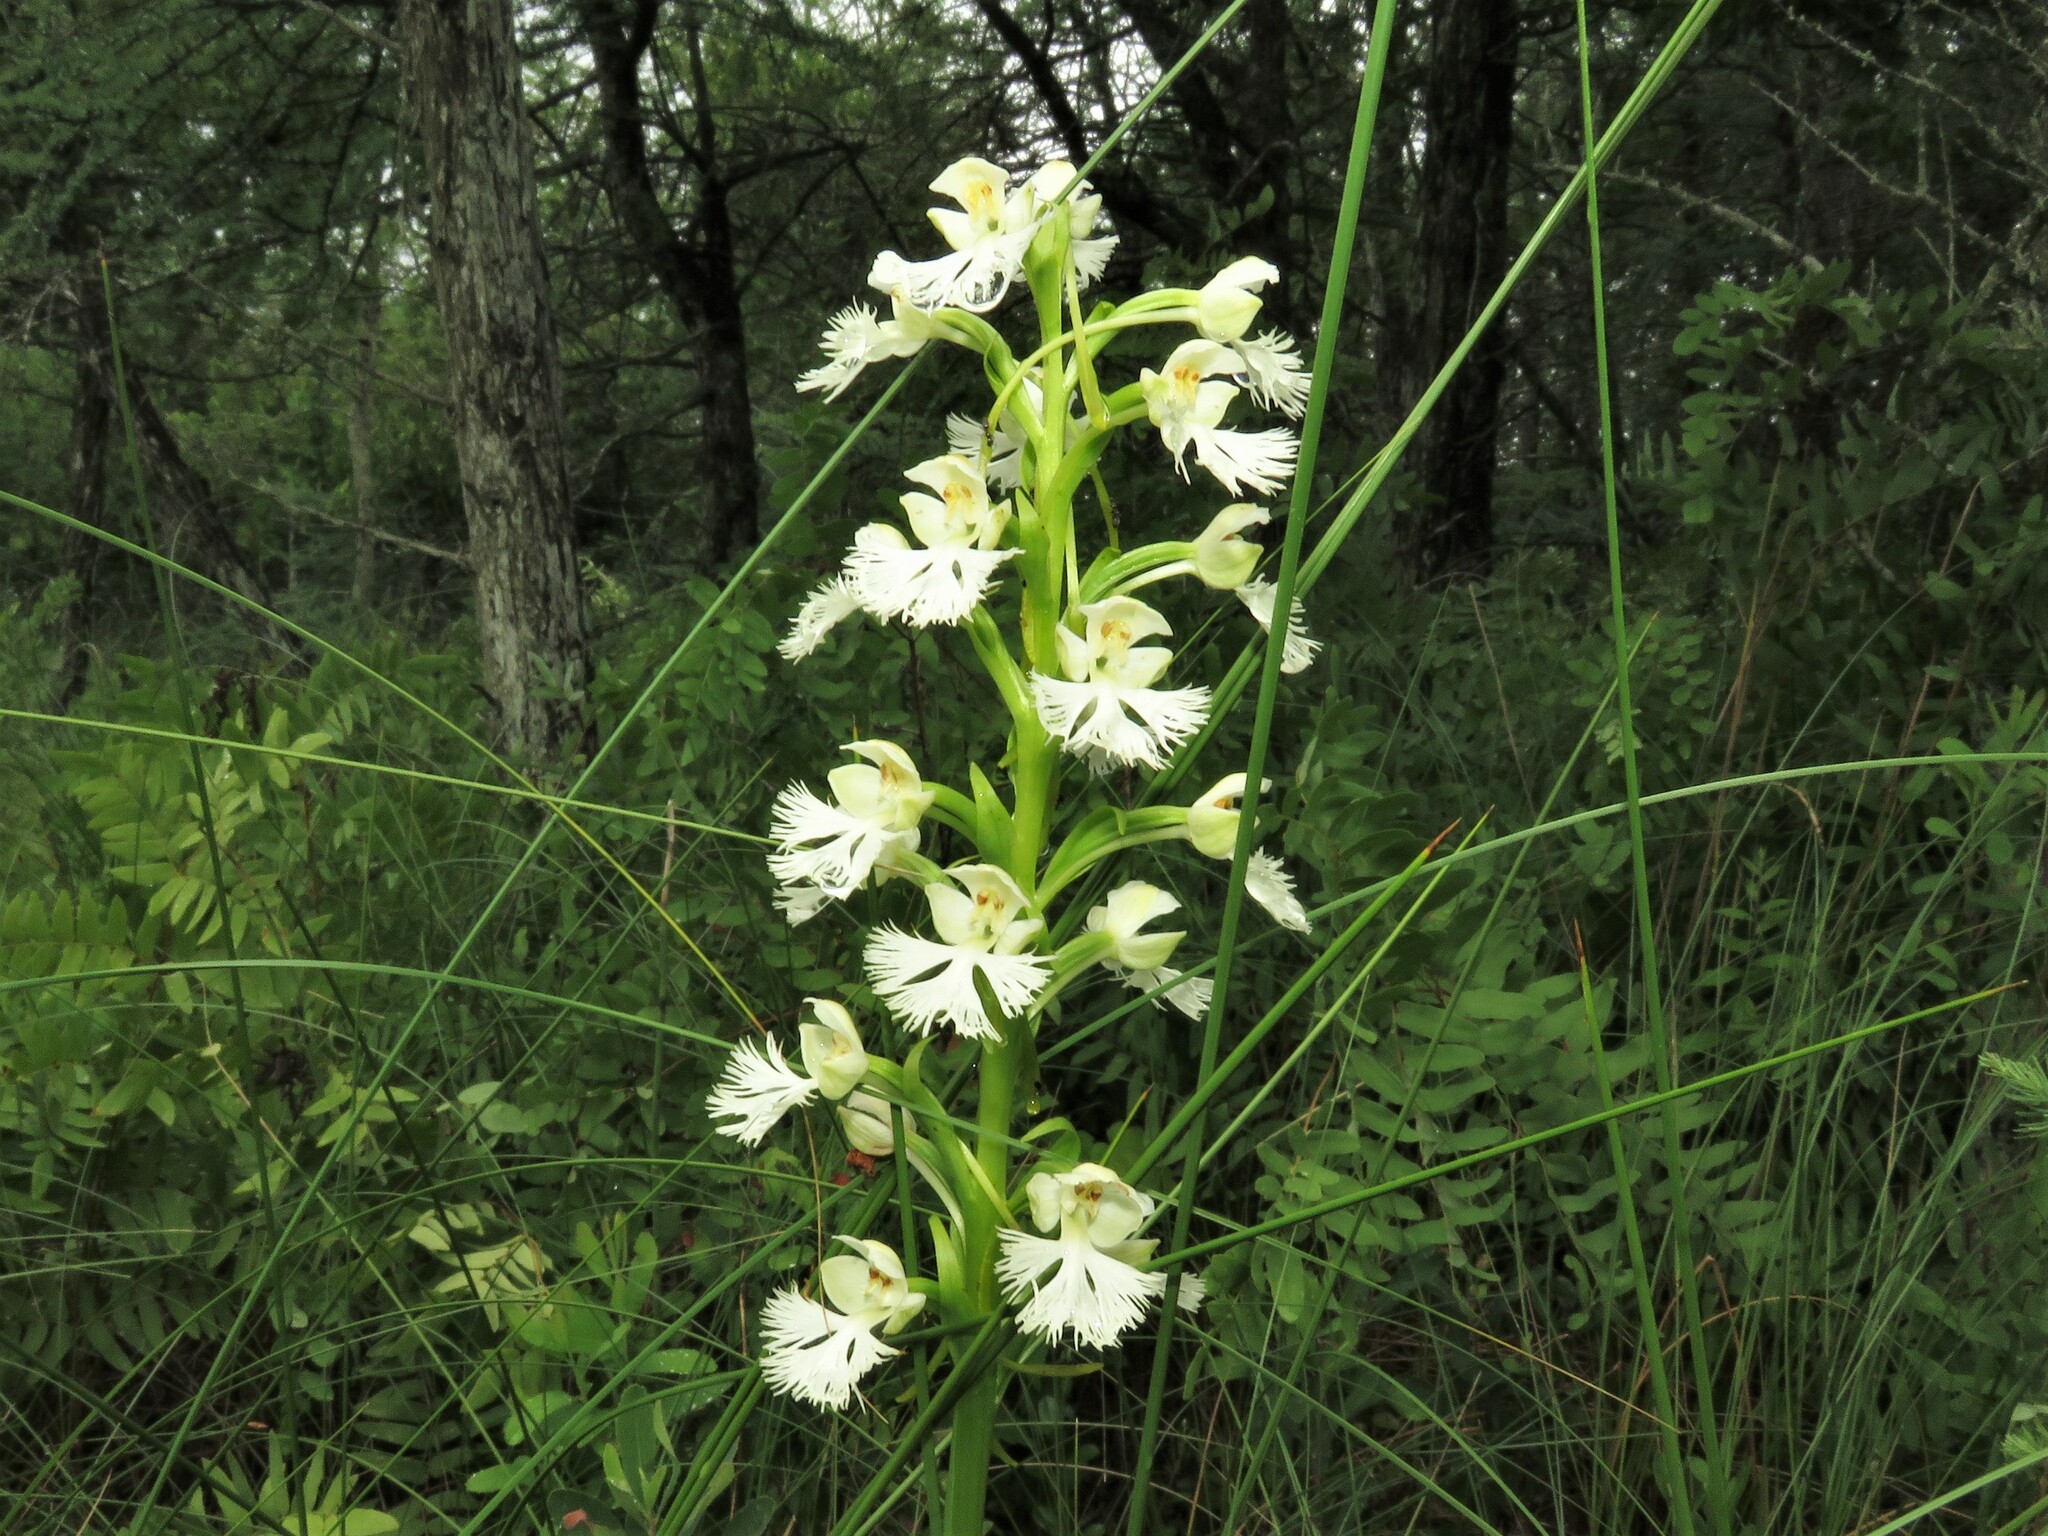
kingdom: Plantae
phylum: Tracheophyta
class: Liliopsida
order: Asparagales
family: Orchidaceae
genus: Platanthera
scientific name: Platanthera leucophaea
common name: Eastern prairie white-fringed orchid
